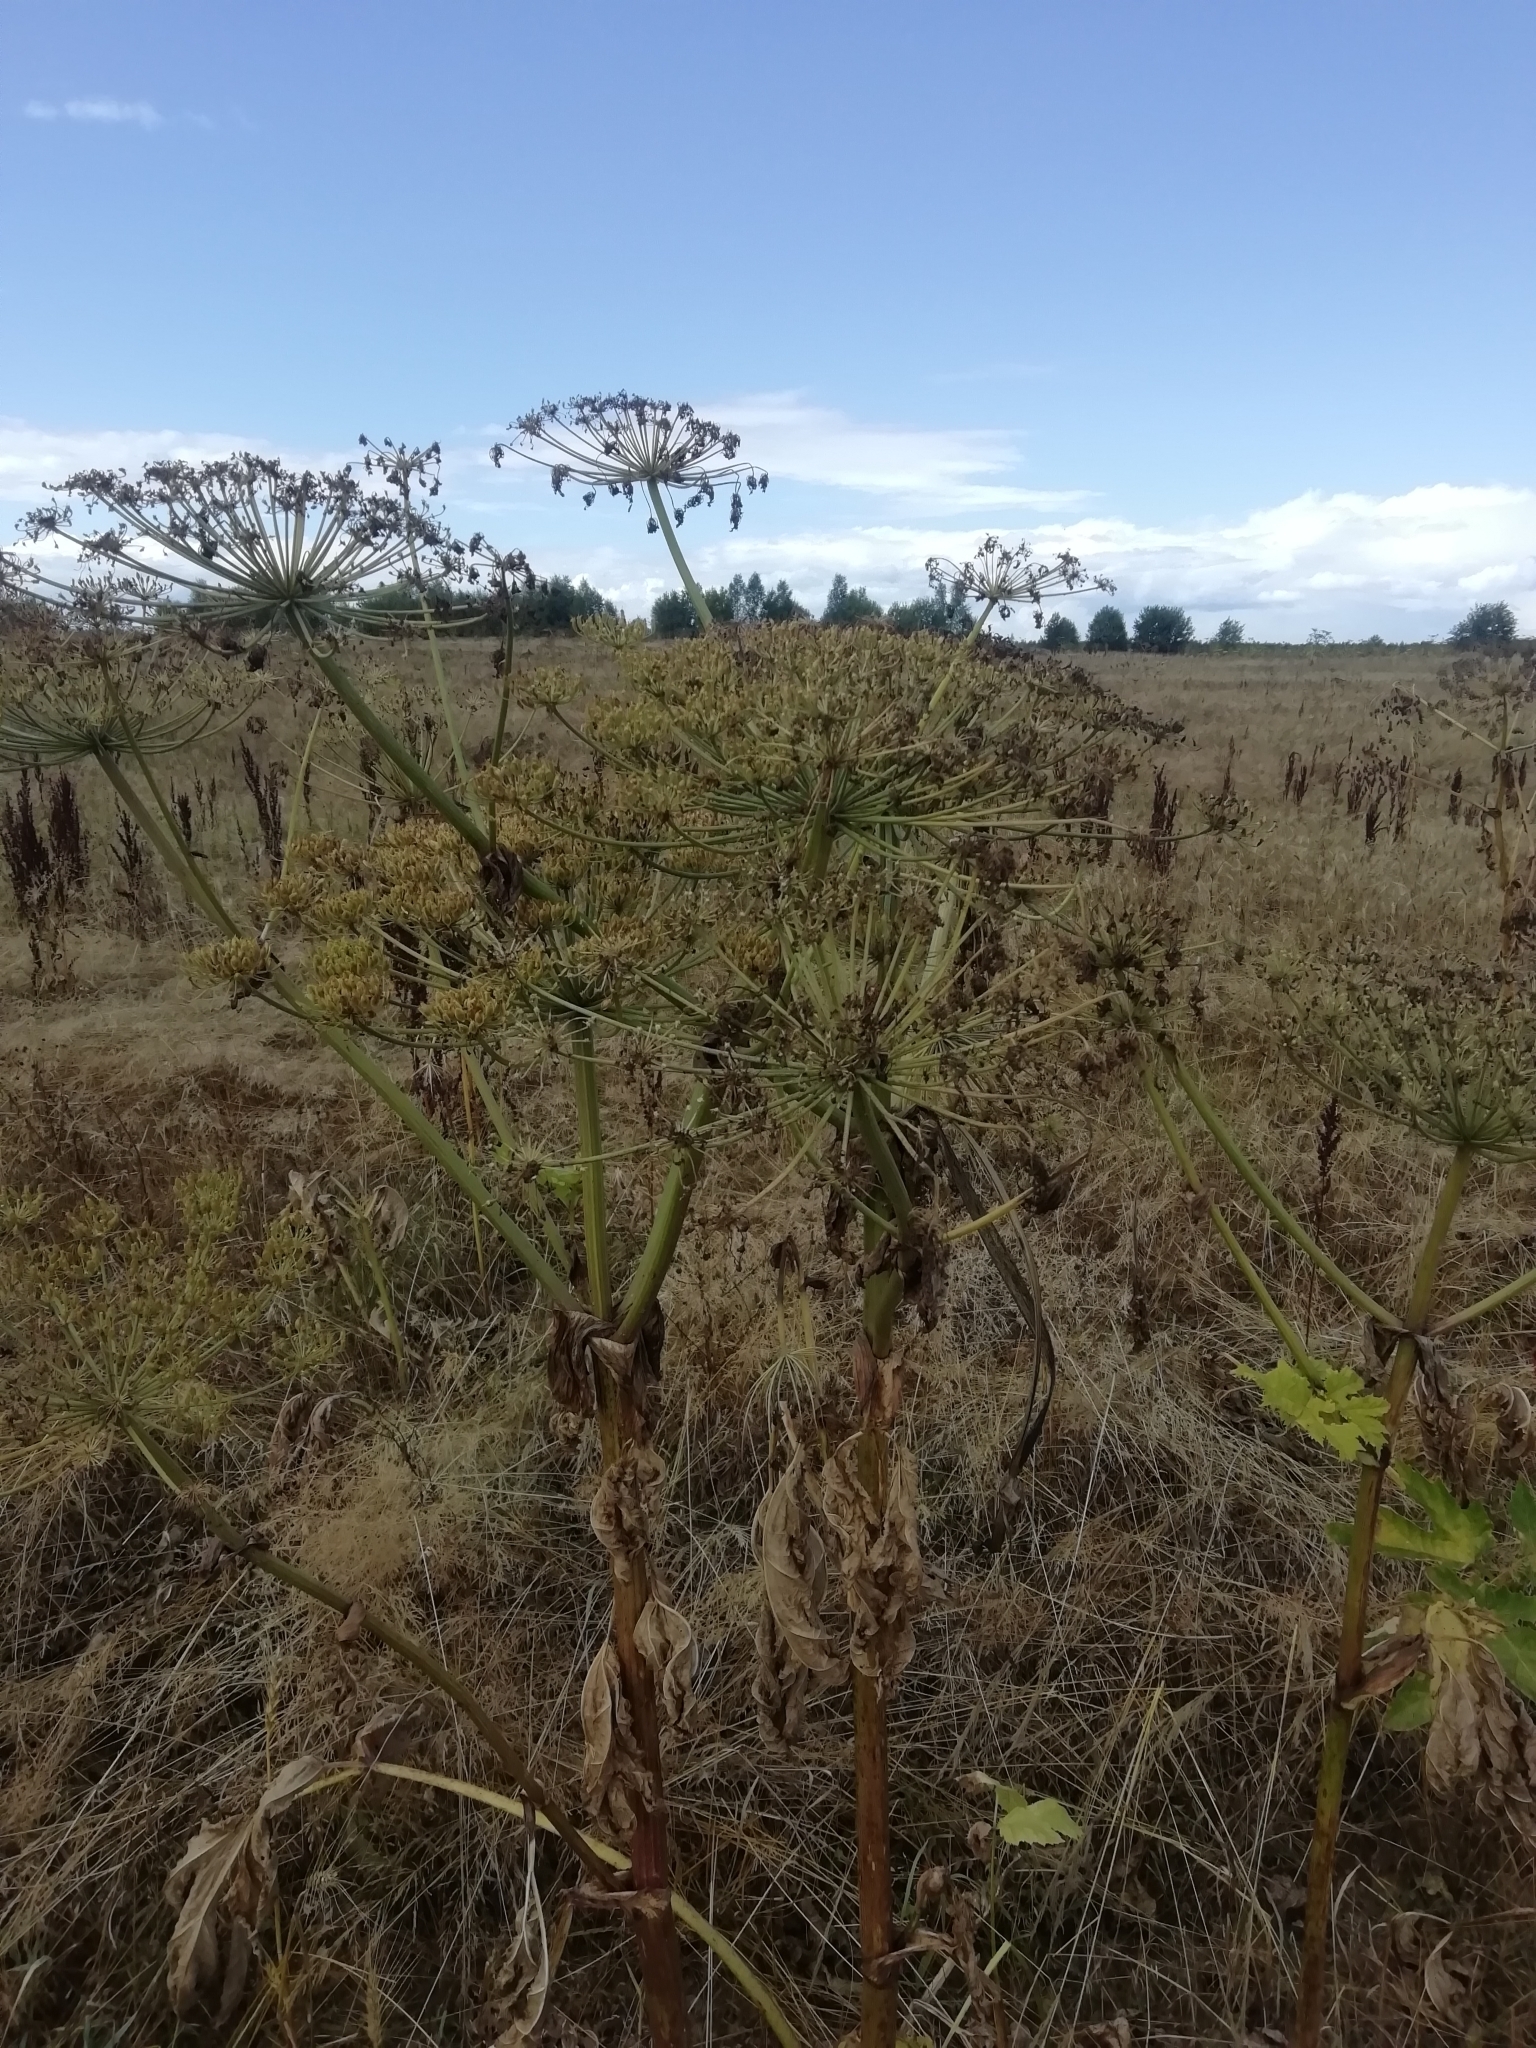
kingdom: Plantae
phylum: Tracheophyta
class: Magnoliopsida
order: Apiales
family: Apiaceae
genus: Heracleum
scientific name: Heracleum sosnowskyi
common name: Sosnowsky's hogweed
